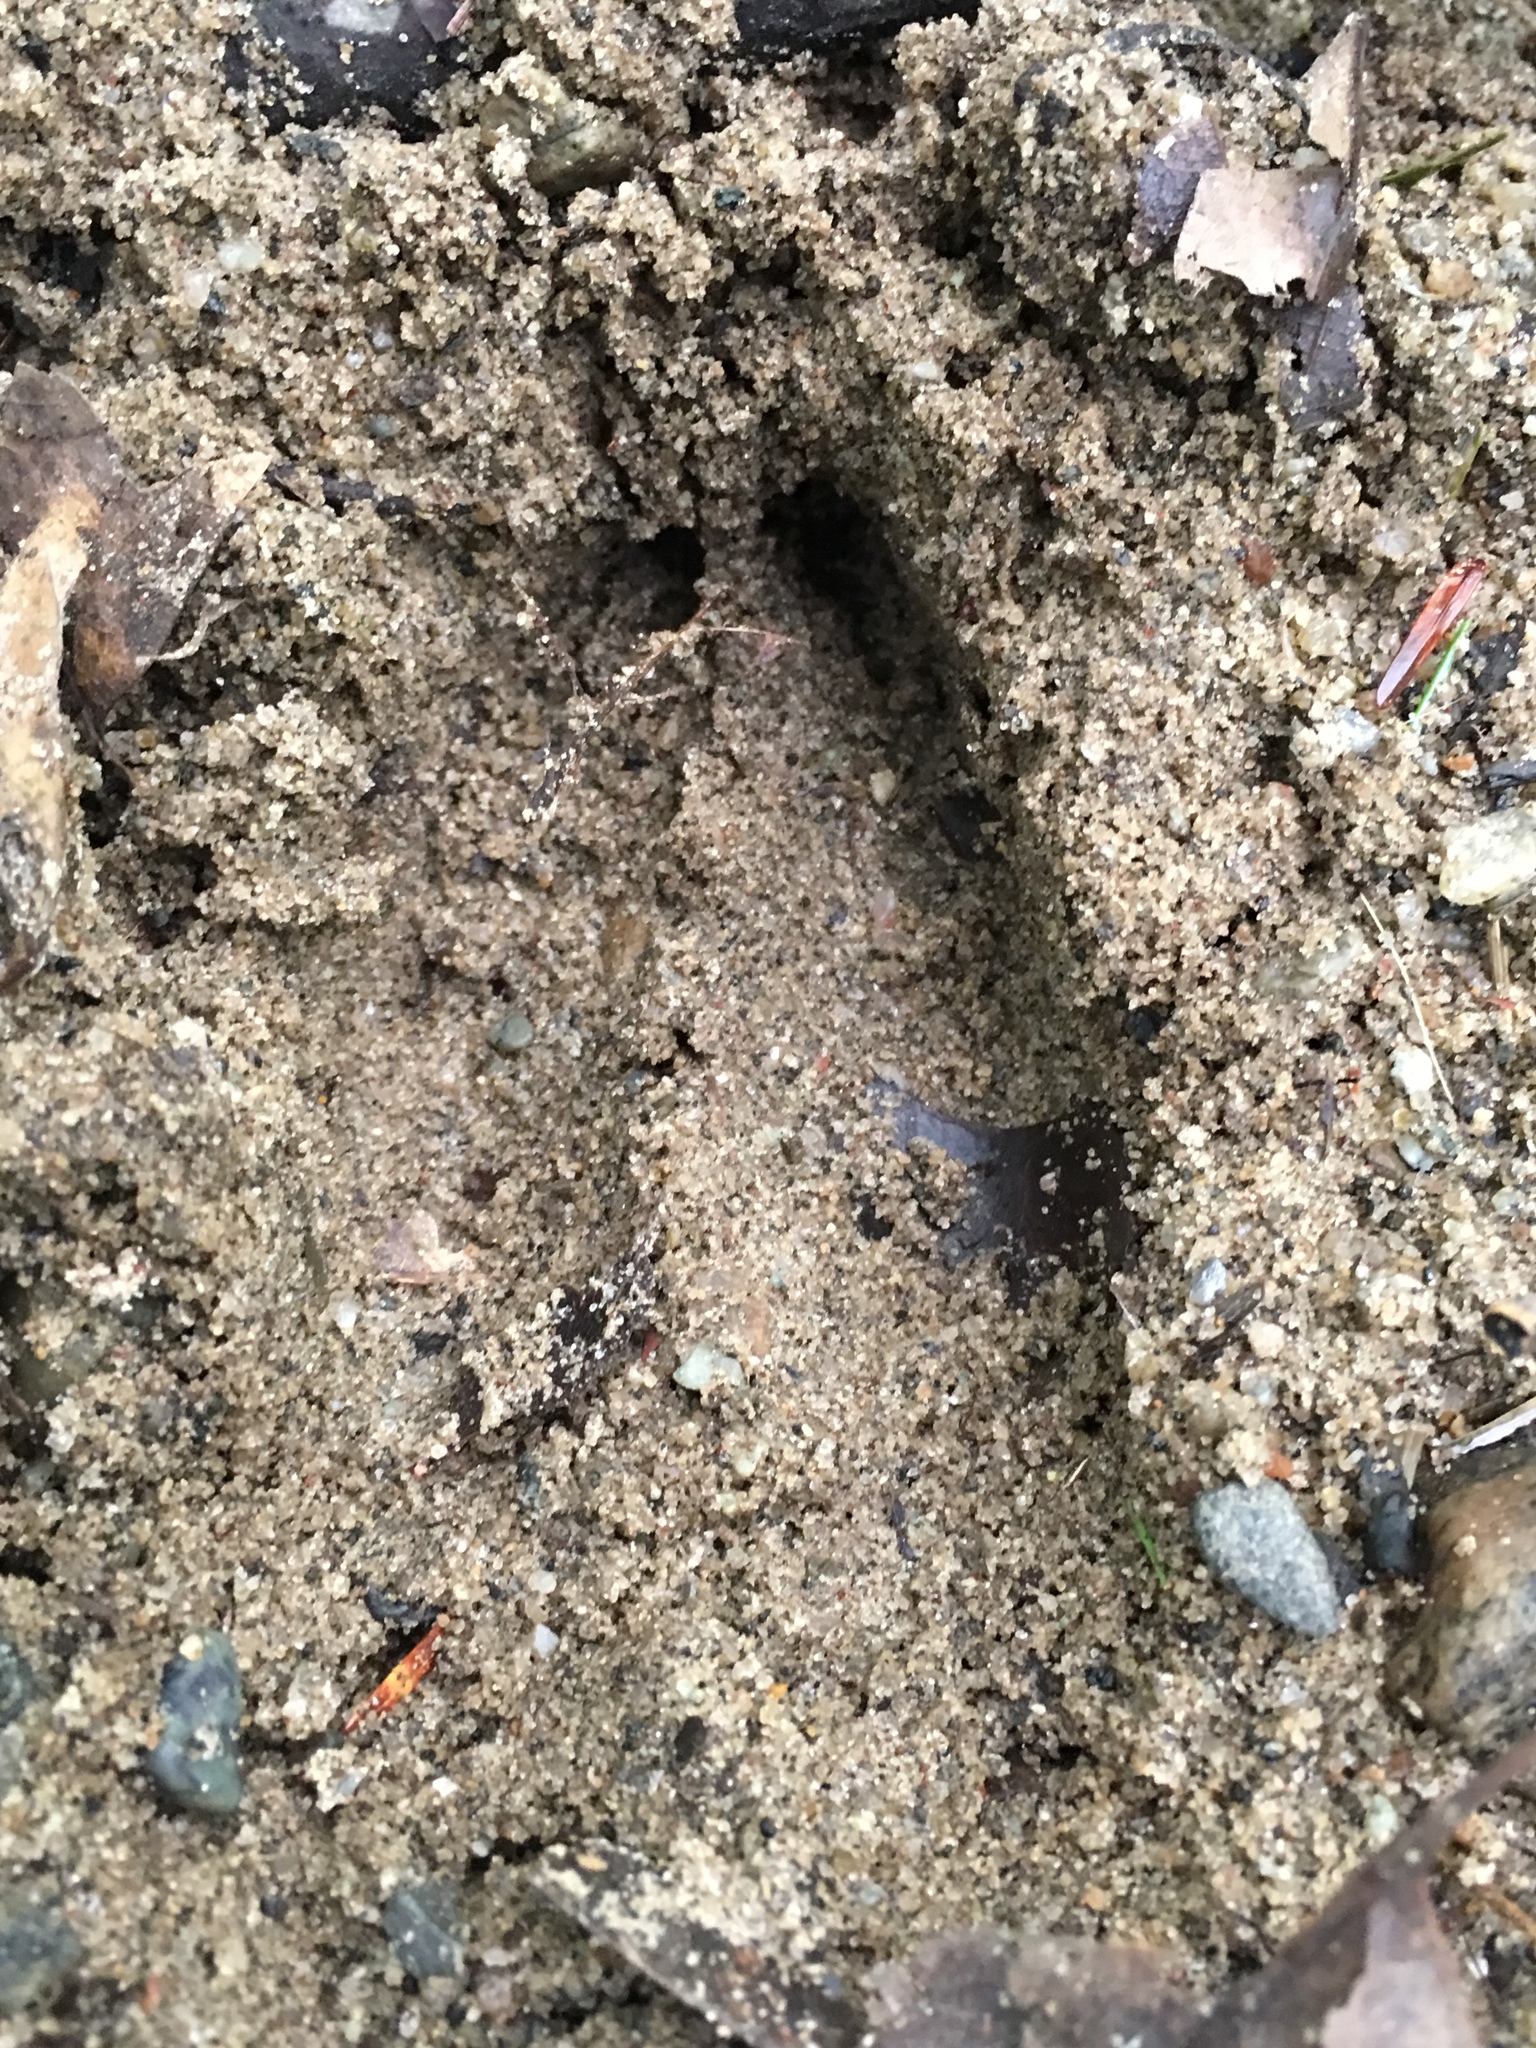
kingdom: Animalia
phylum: Chordata
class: Mammalia
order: Artiodactyla
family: Cervidae
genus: Odocoileus
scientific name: Odocoileus virginianus
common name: White-tailed deer
